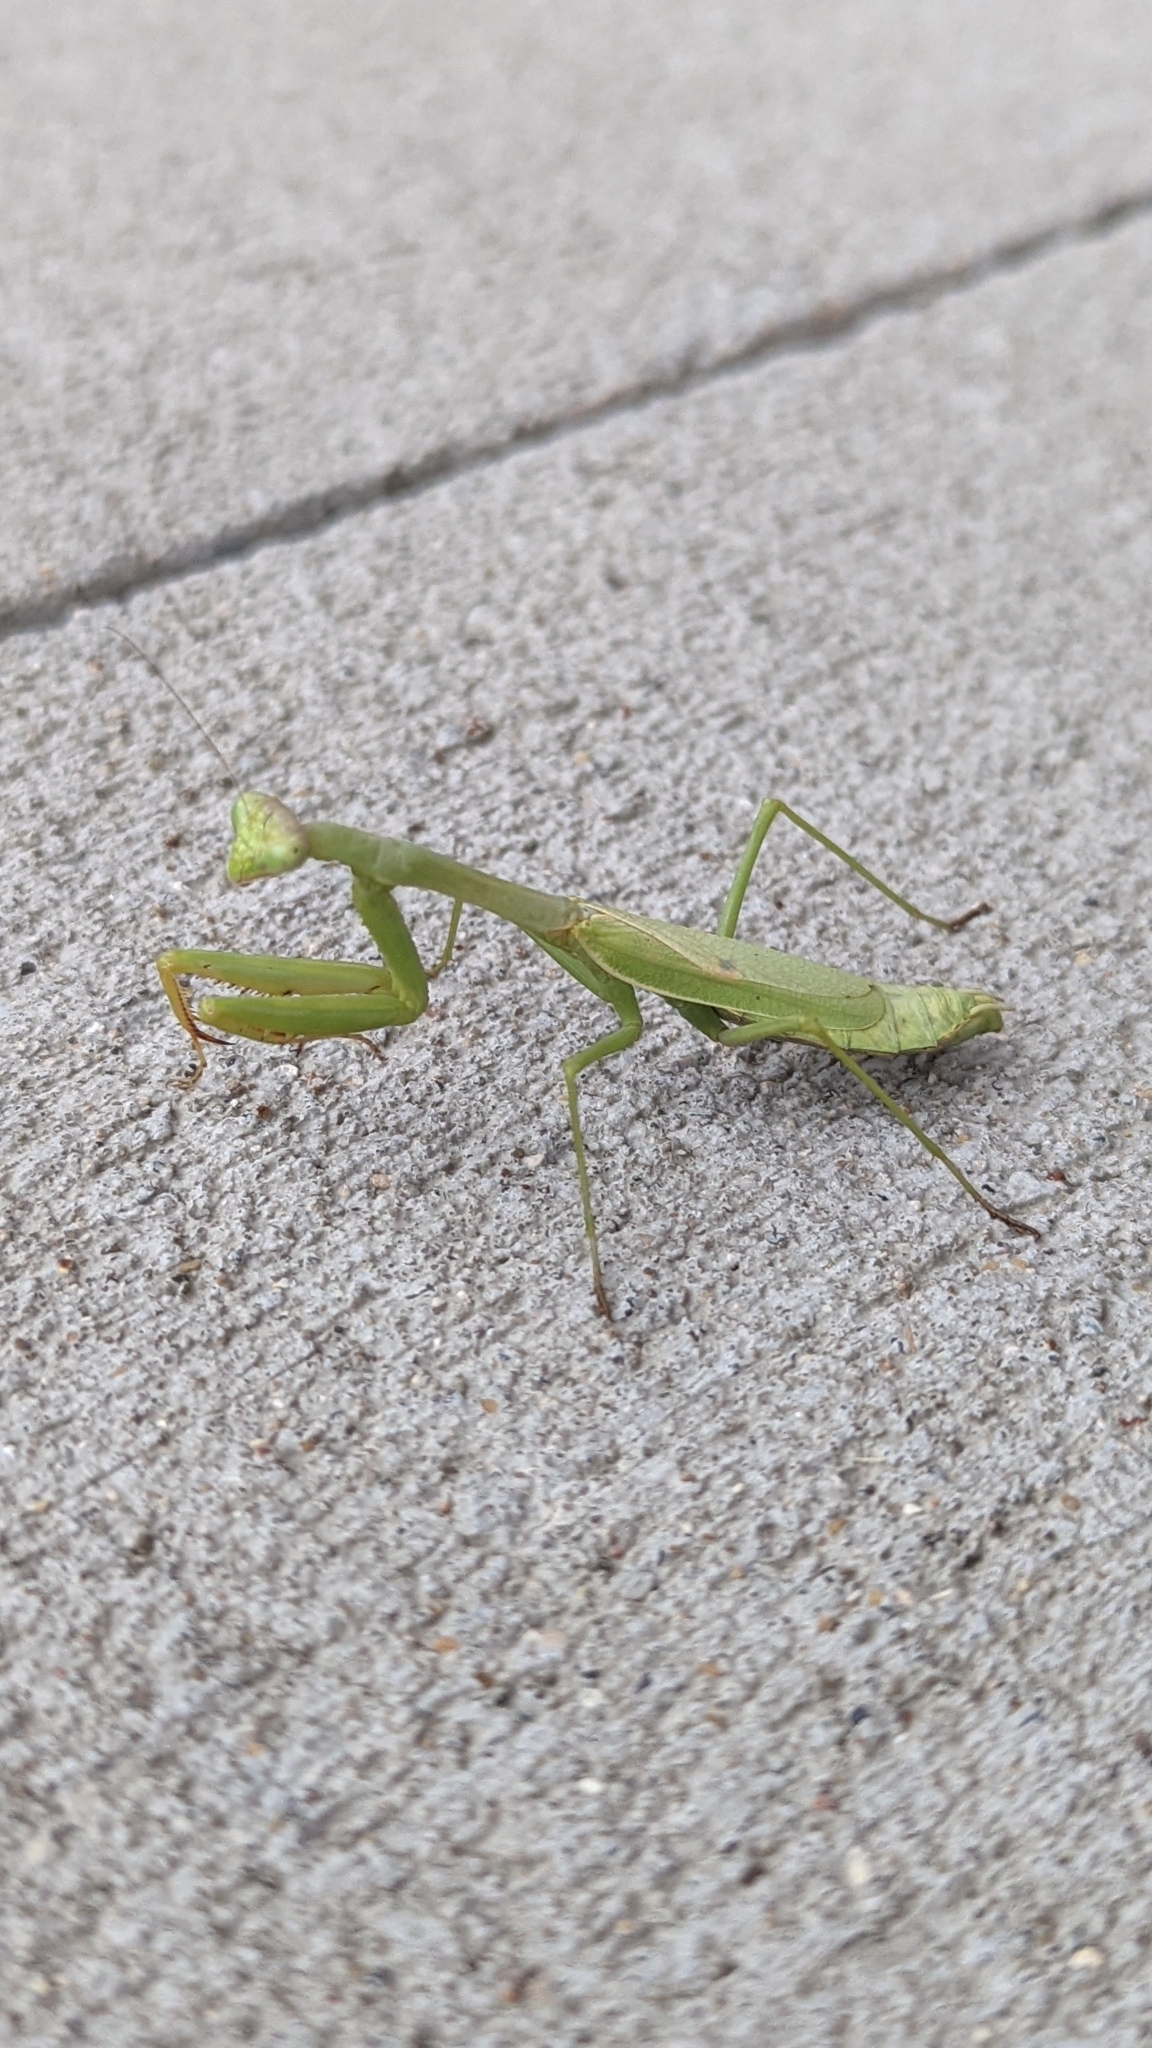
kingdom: Animalia
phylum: Arthropoda
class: Insecta
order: Mantodea
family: Mantidae
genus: Stagmomantis
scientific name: Stagmomantis carolina
